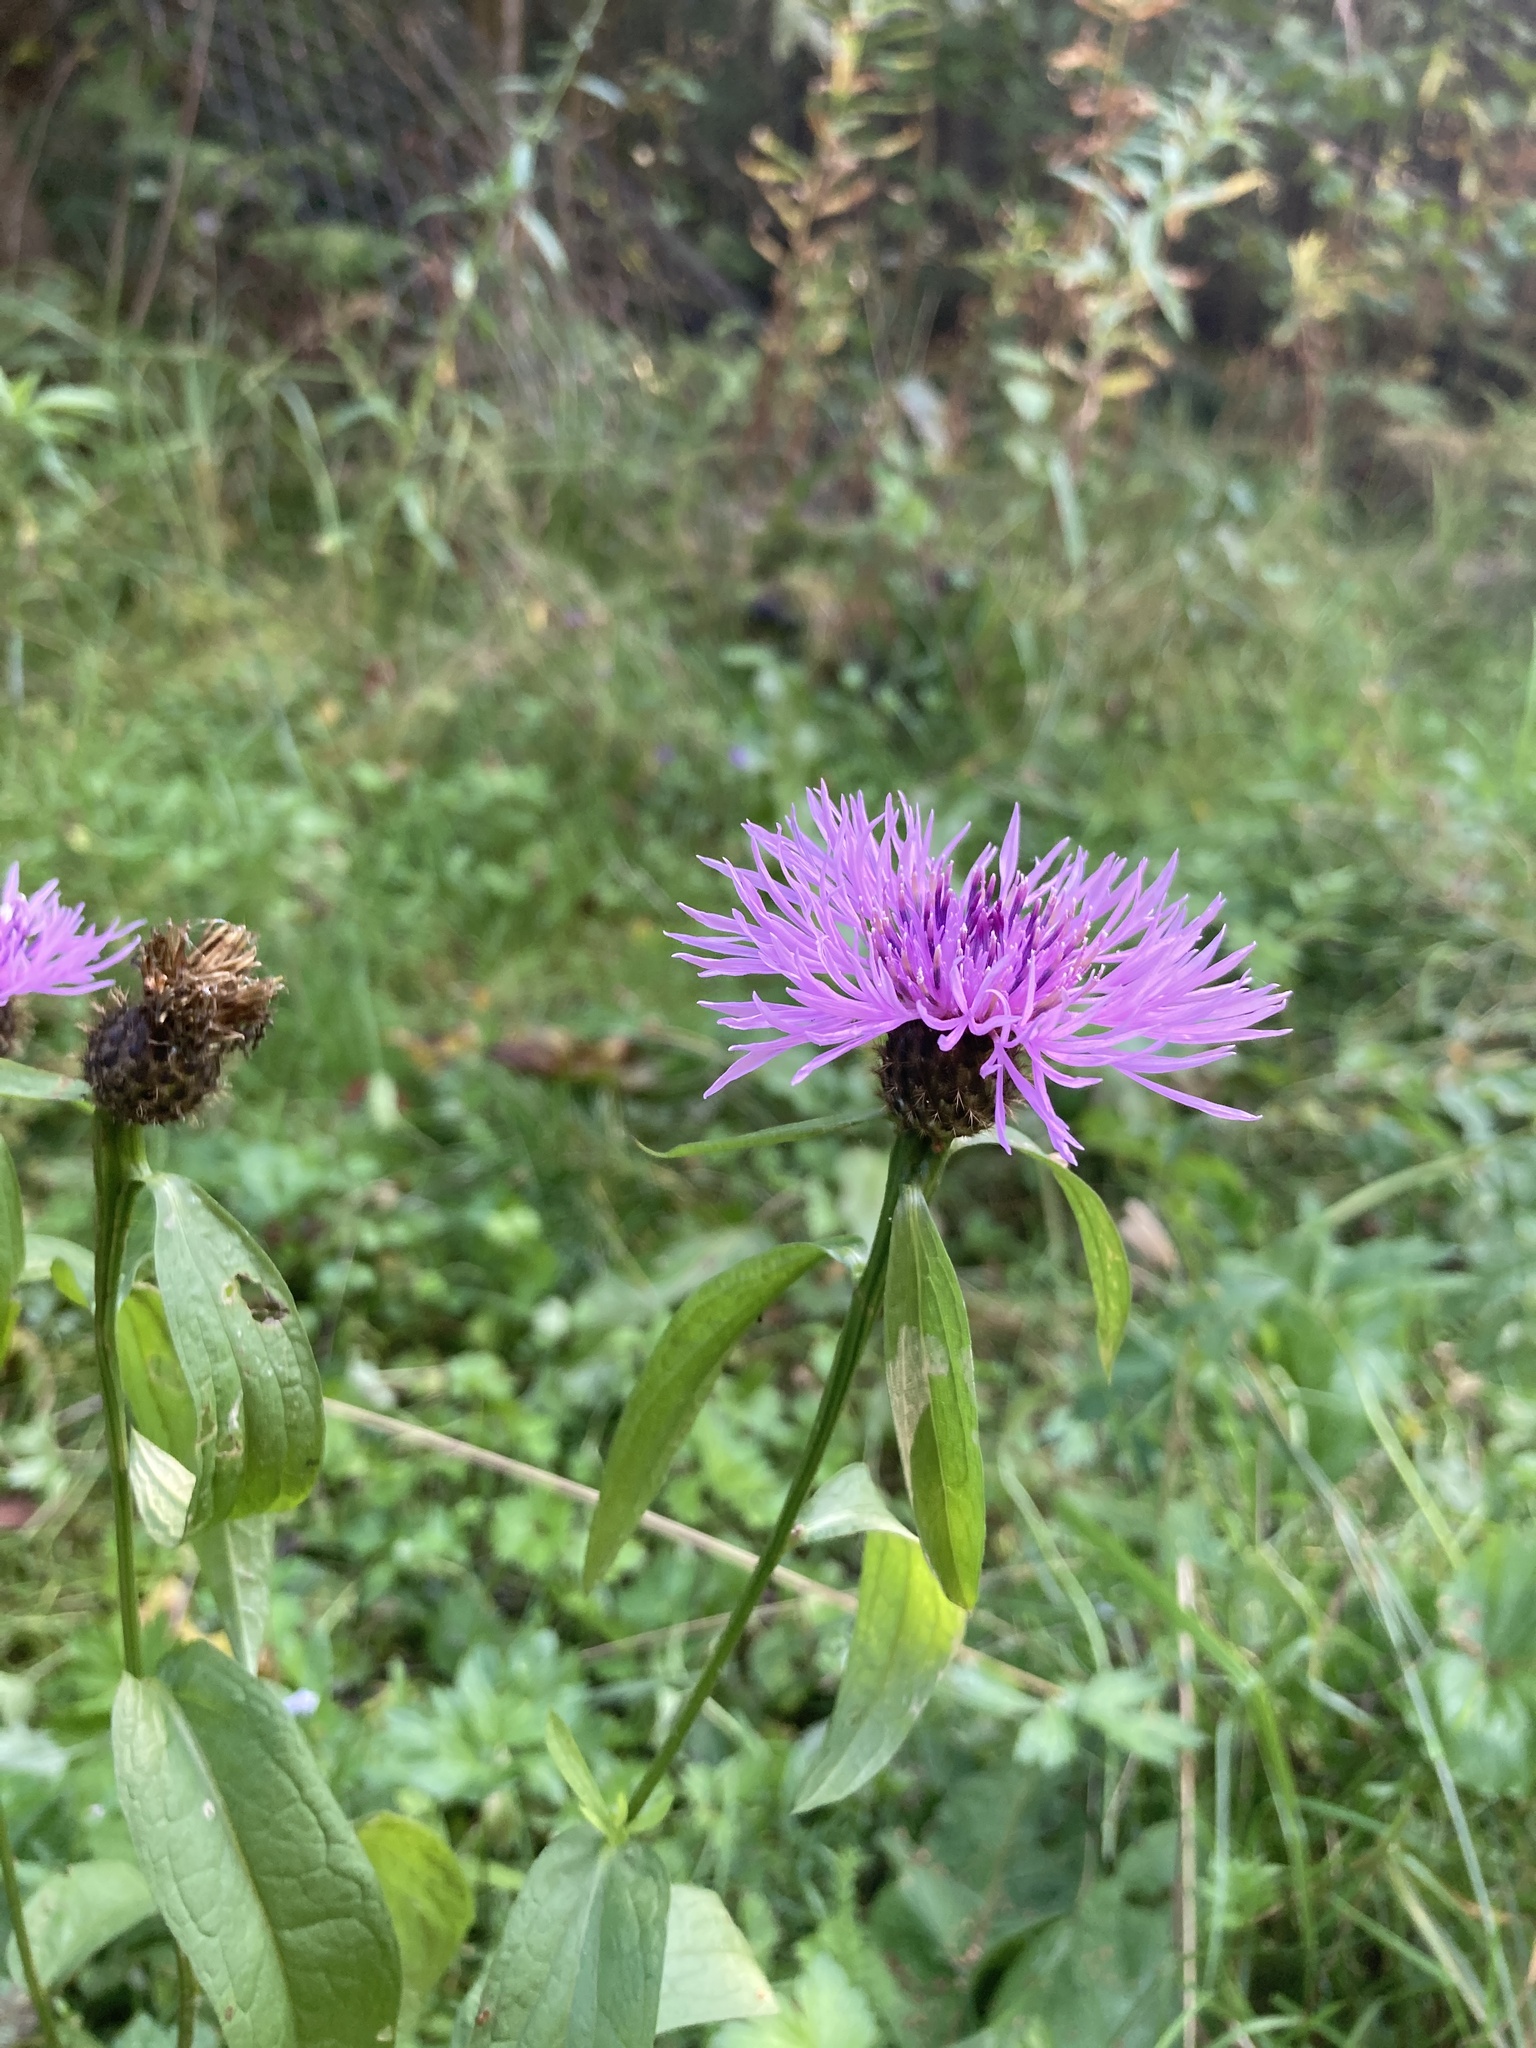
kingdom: Plantae
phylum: Tracheophyta
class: Magnoliopsida
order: Asterales
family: Asteraceae
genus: Centaurea
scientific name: Centaurea phrygia
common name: Wig knapweed
